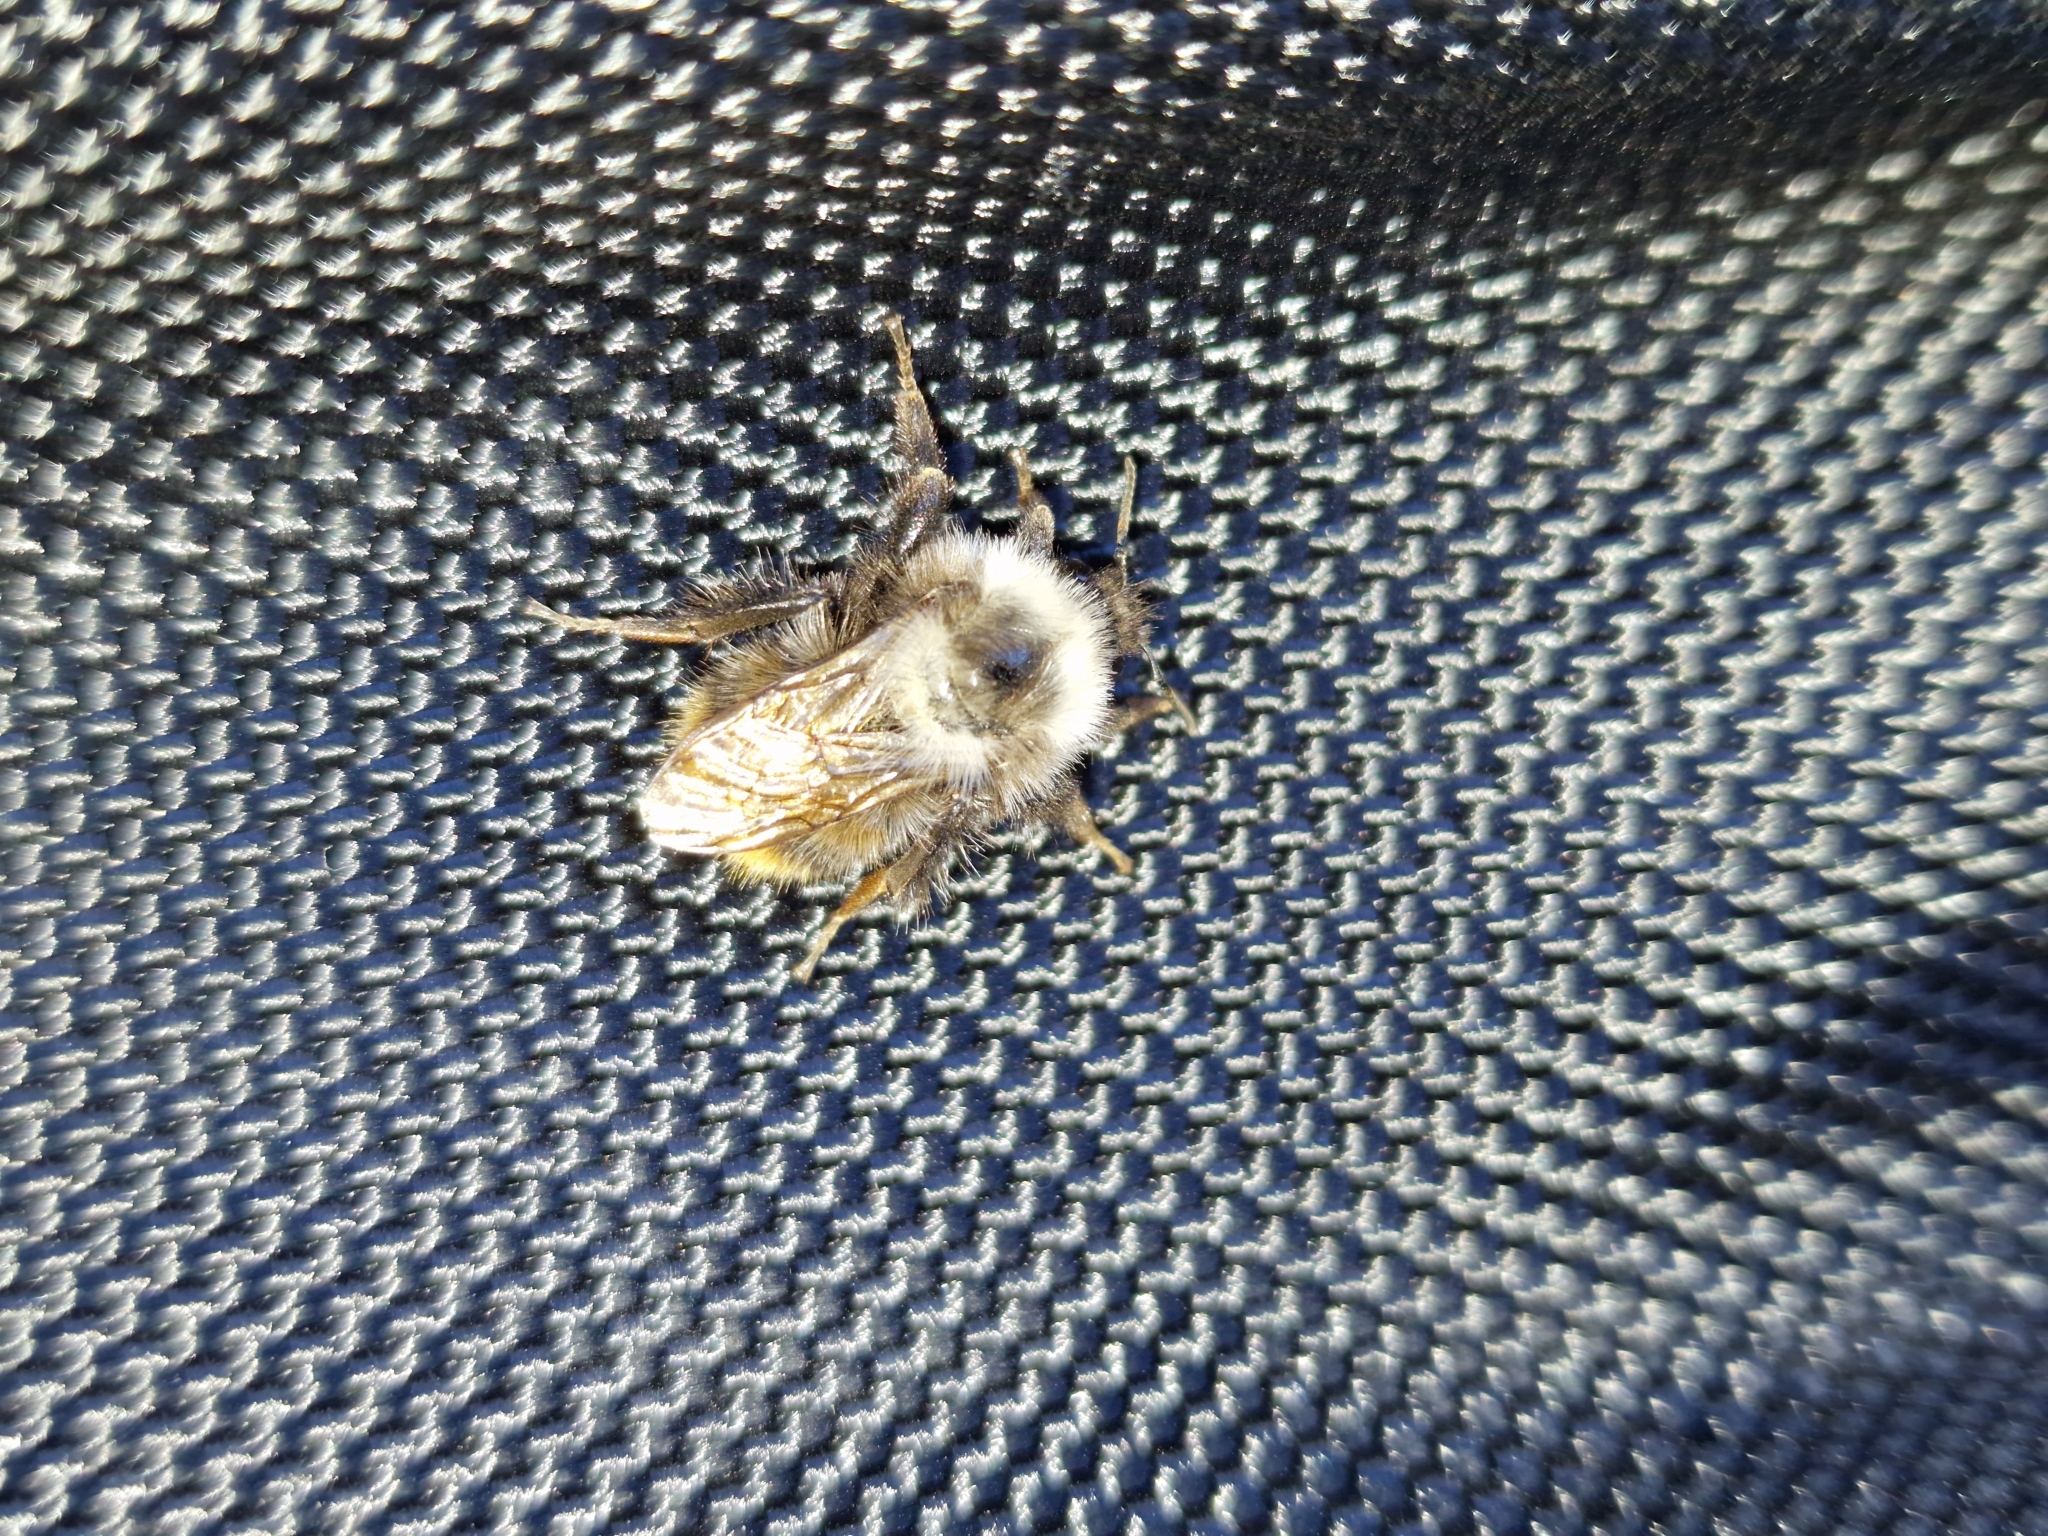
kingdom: Animalia
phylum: Arthropoda
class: Insecta
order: Hymenoptera
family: Apidae
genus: Bombus
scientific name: Bombus mlokosievitzii
